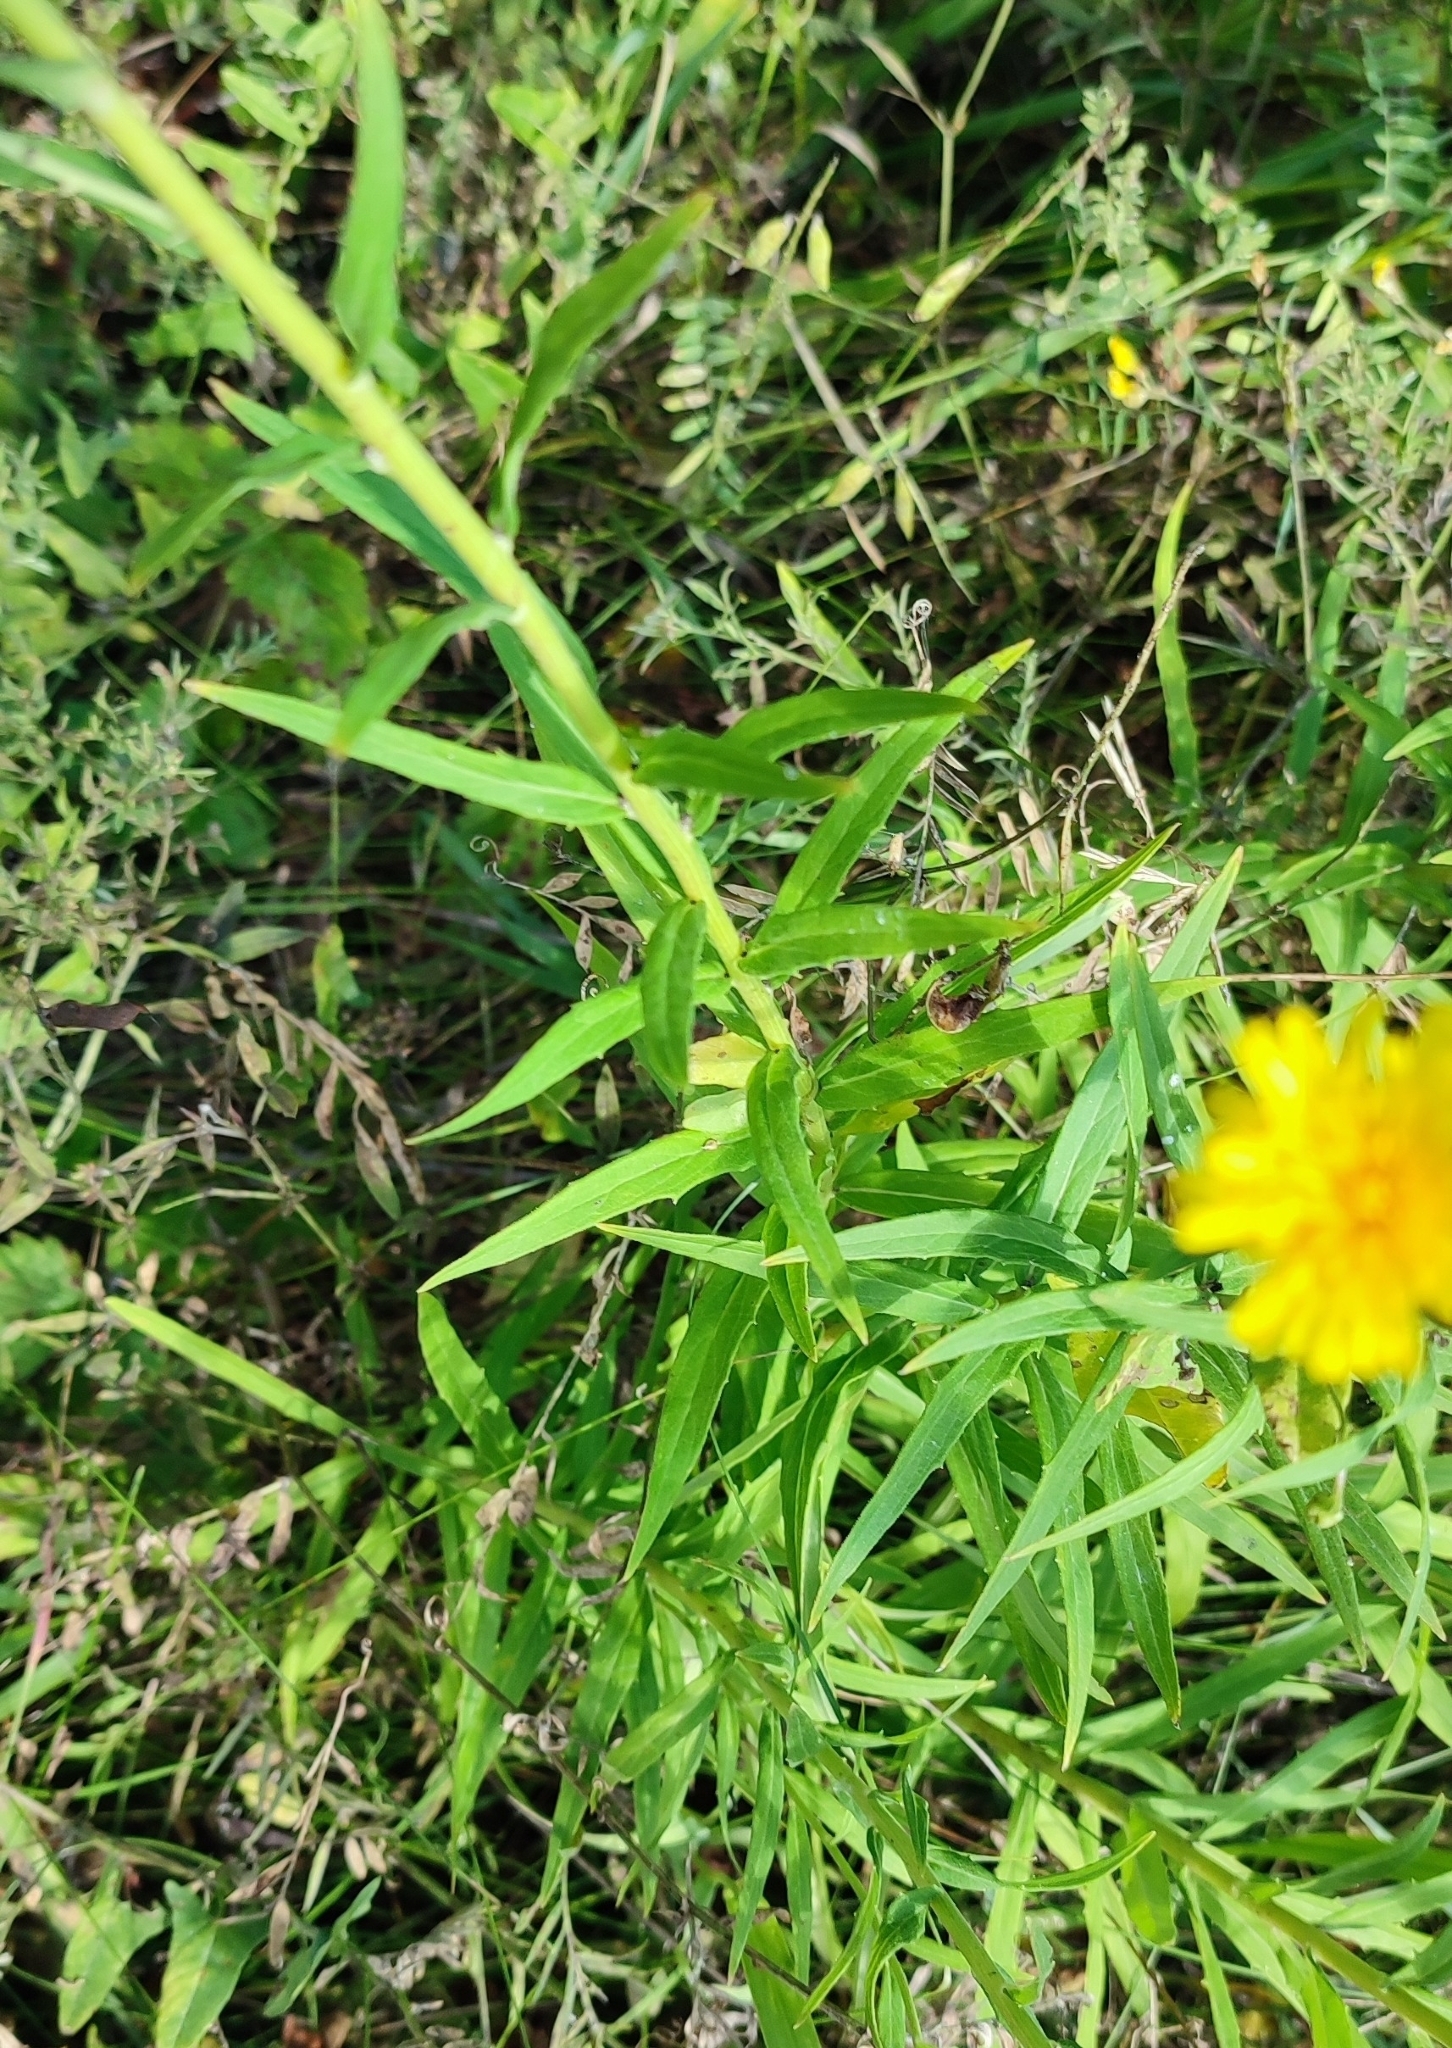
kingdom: Plantae
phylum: Tracheophyta
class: Magnoliopsida
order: Asterales
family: Asteraceae
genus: Hieracium
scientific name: Hieracium umbellatum
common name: Northern hawkweed
